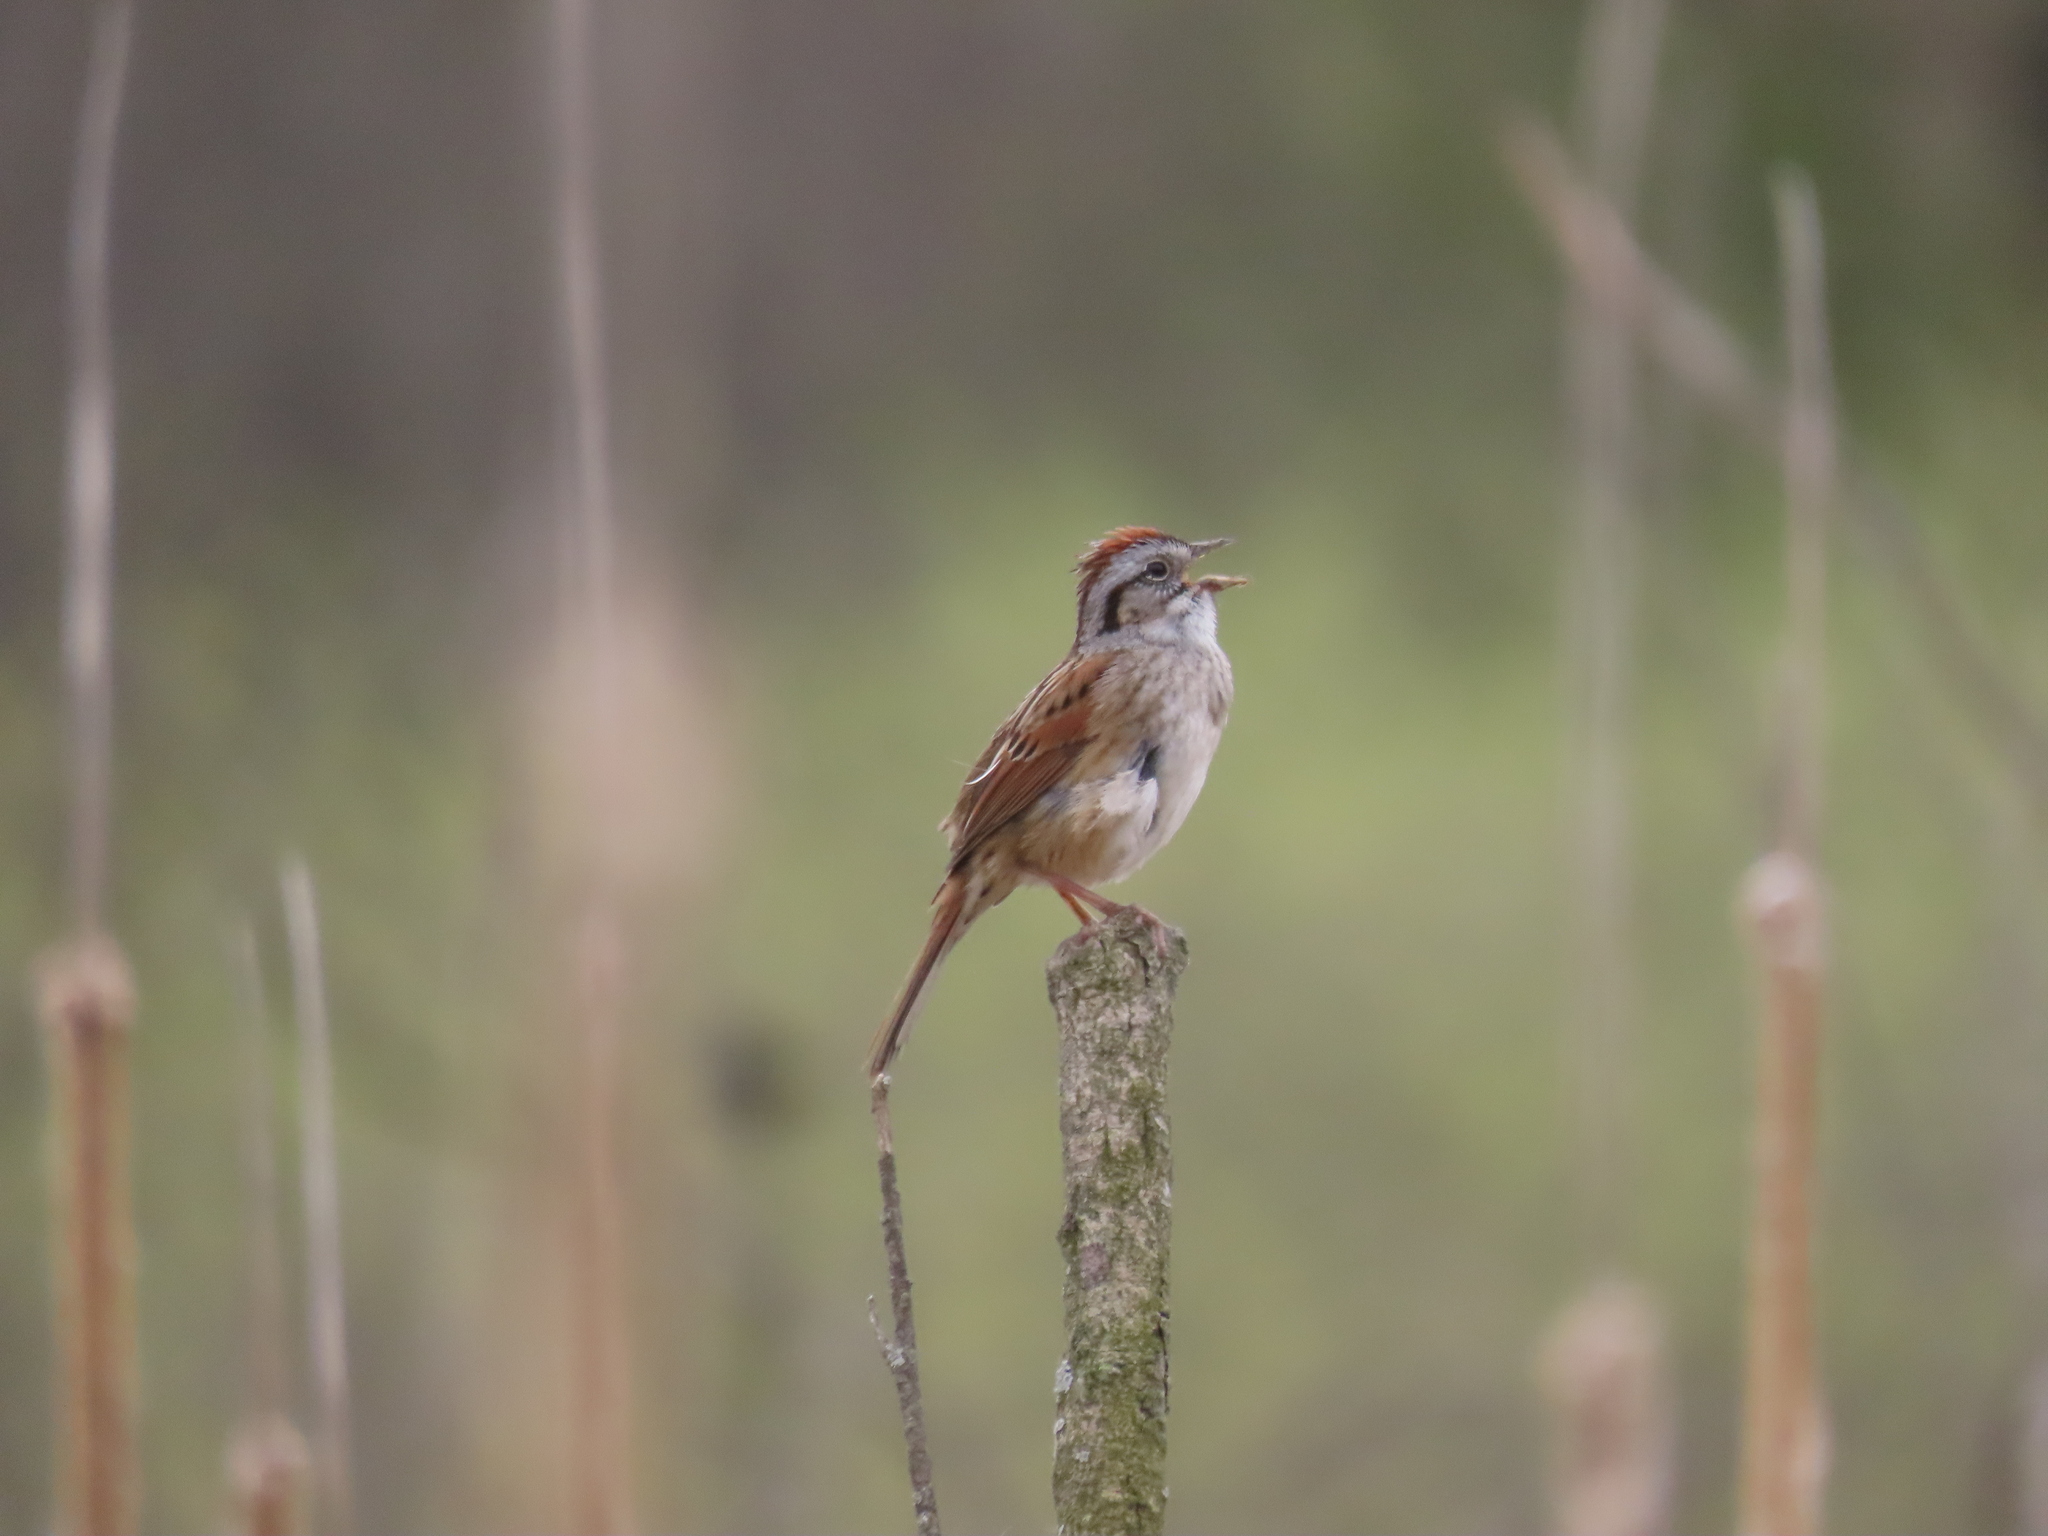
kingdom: Animalia
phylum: Chordata
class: Aves
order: Passeriformes
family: Passerellidae
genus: Melospiza
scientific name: Melospiza georgiana
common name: Swamp sparrow
